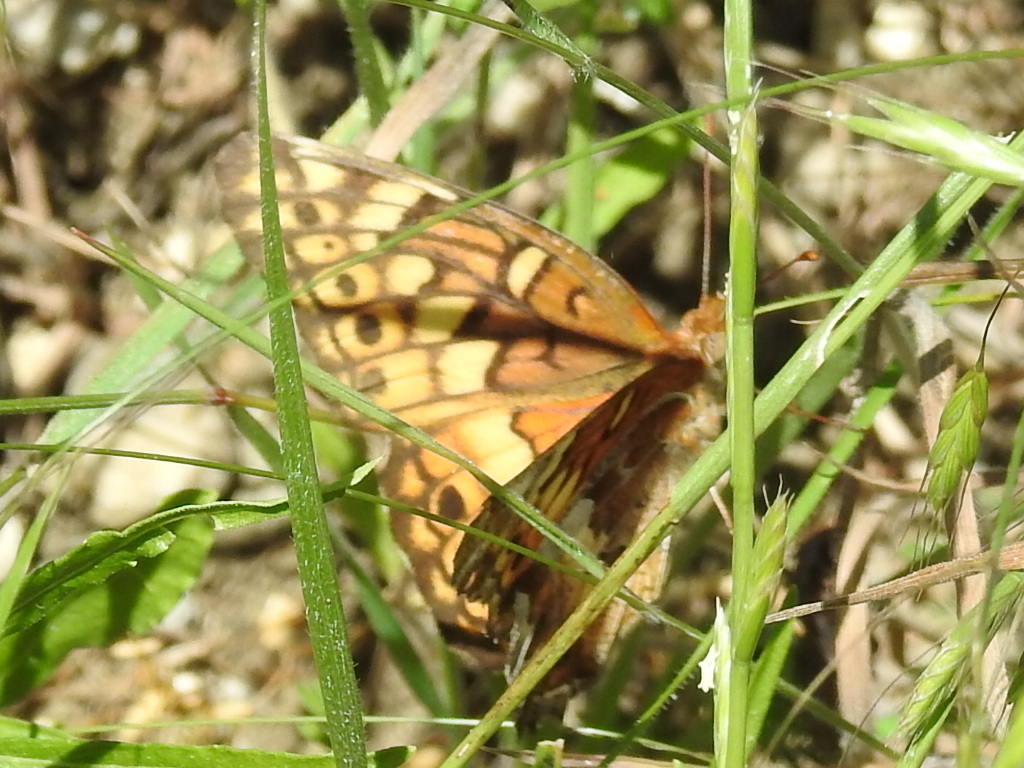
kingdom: Animalia
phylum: Arthropoda
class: Insecta
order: Lepidoptera
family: Nymphalidae
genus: Euptoieta
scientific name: Euptoieta claudia
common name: Variegated fritillary
